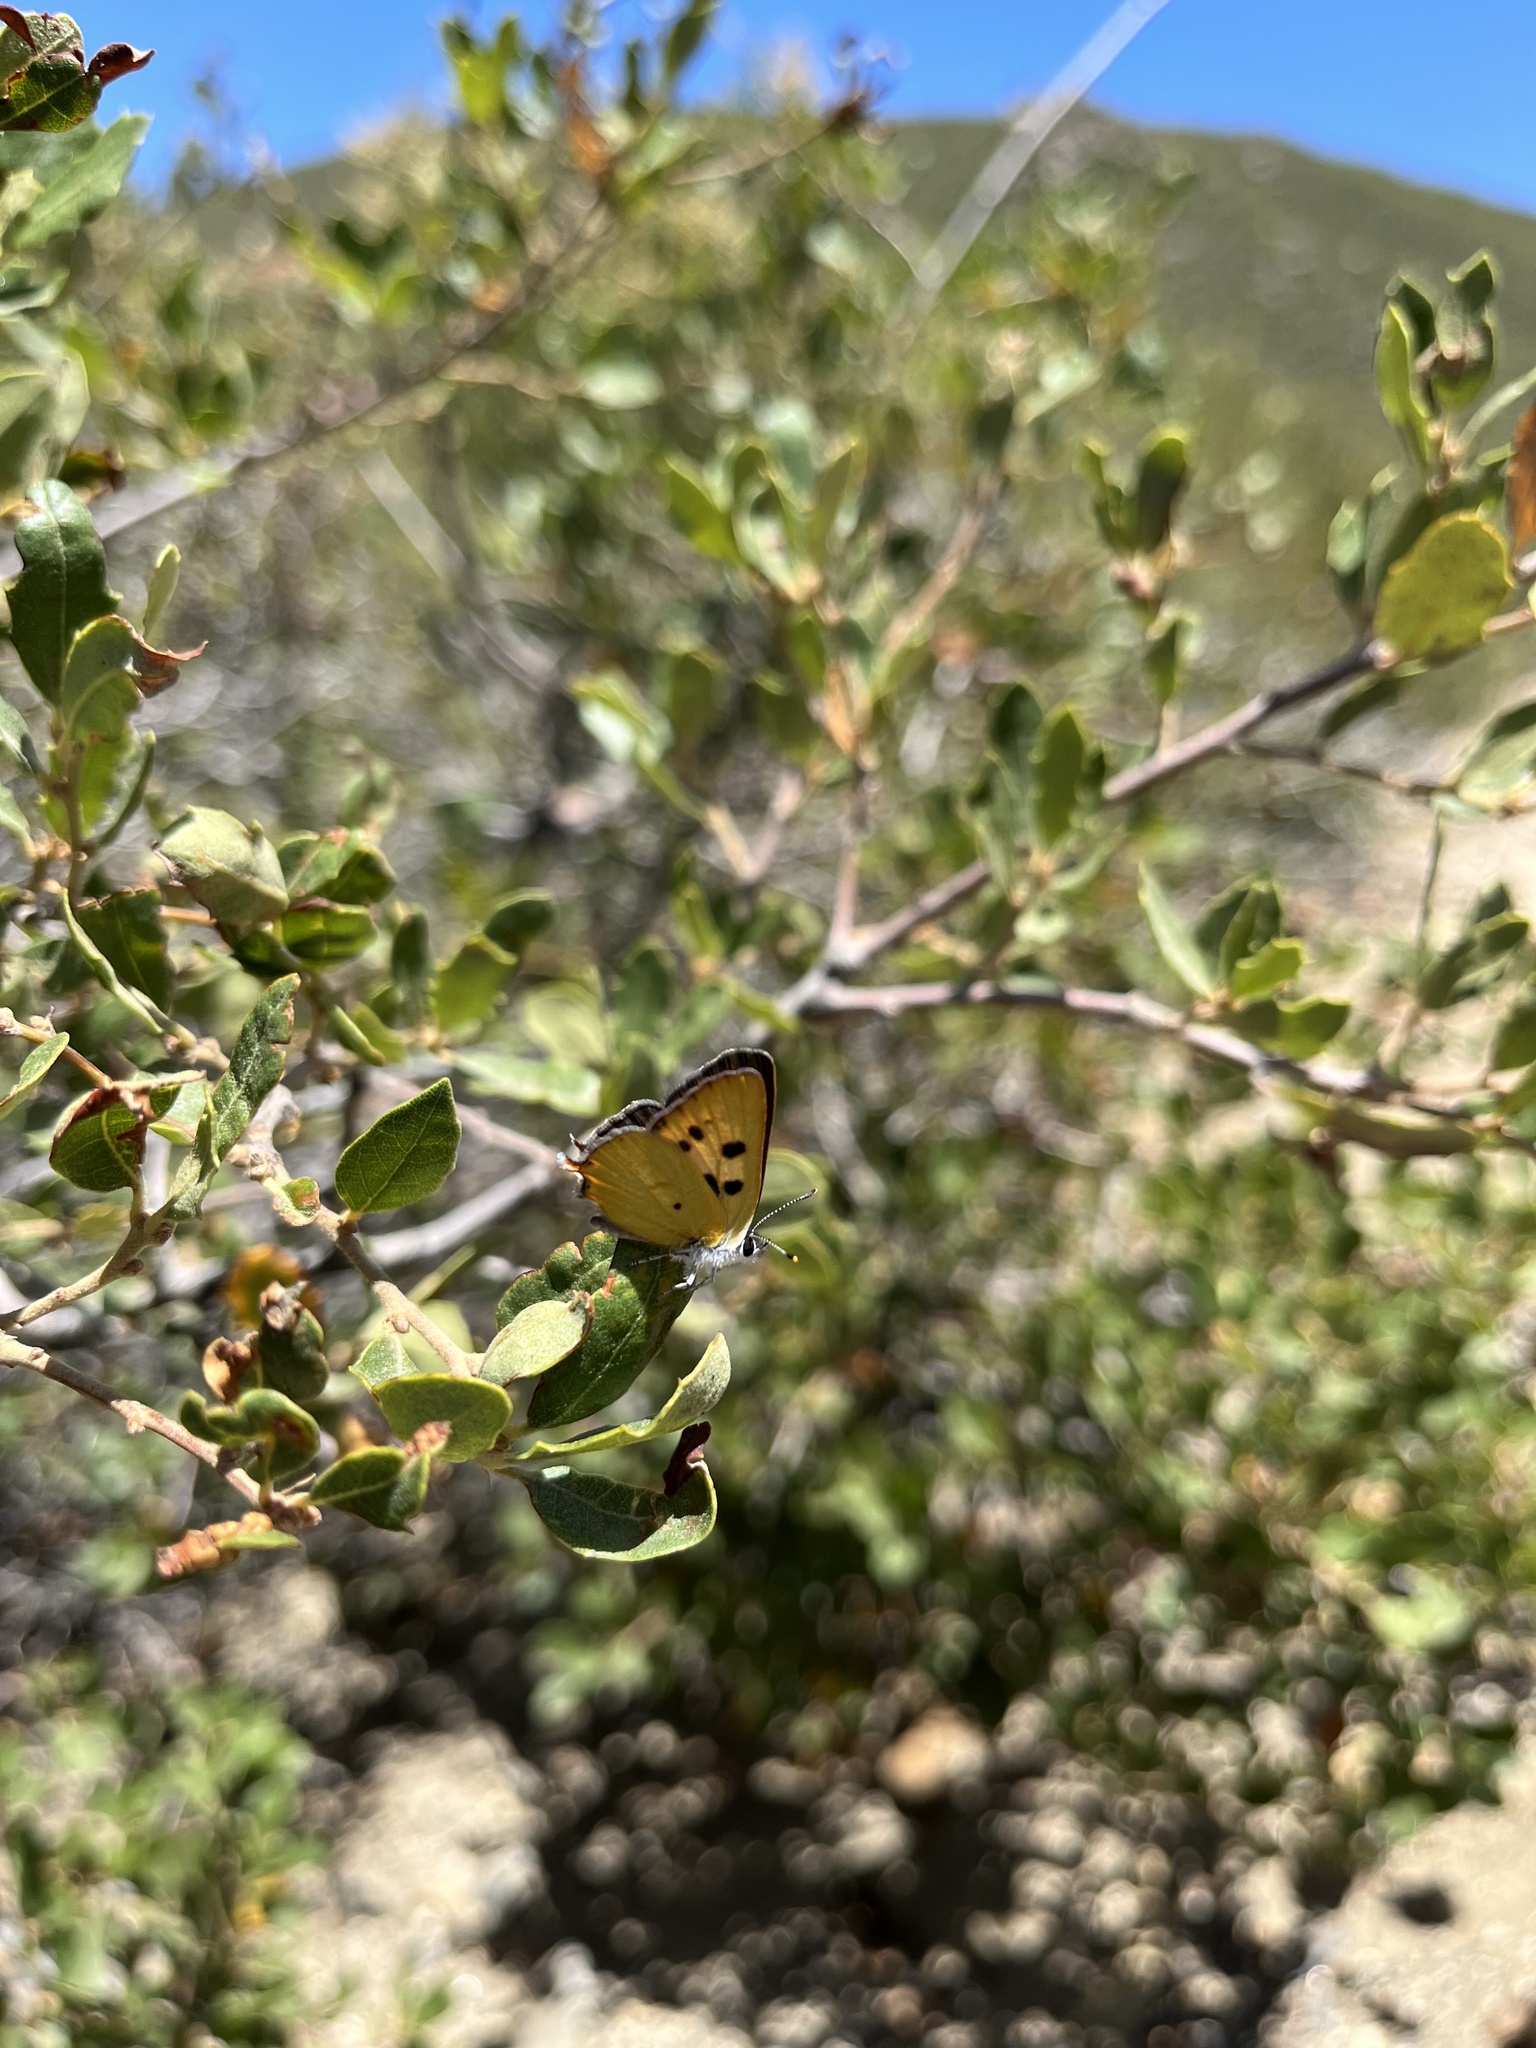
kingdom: Animalia
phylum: Arthropoda
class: Insecta
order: Lepidoptera
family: Lycaenidae
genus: Tharsalea
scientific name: Tharsalea
